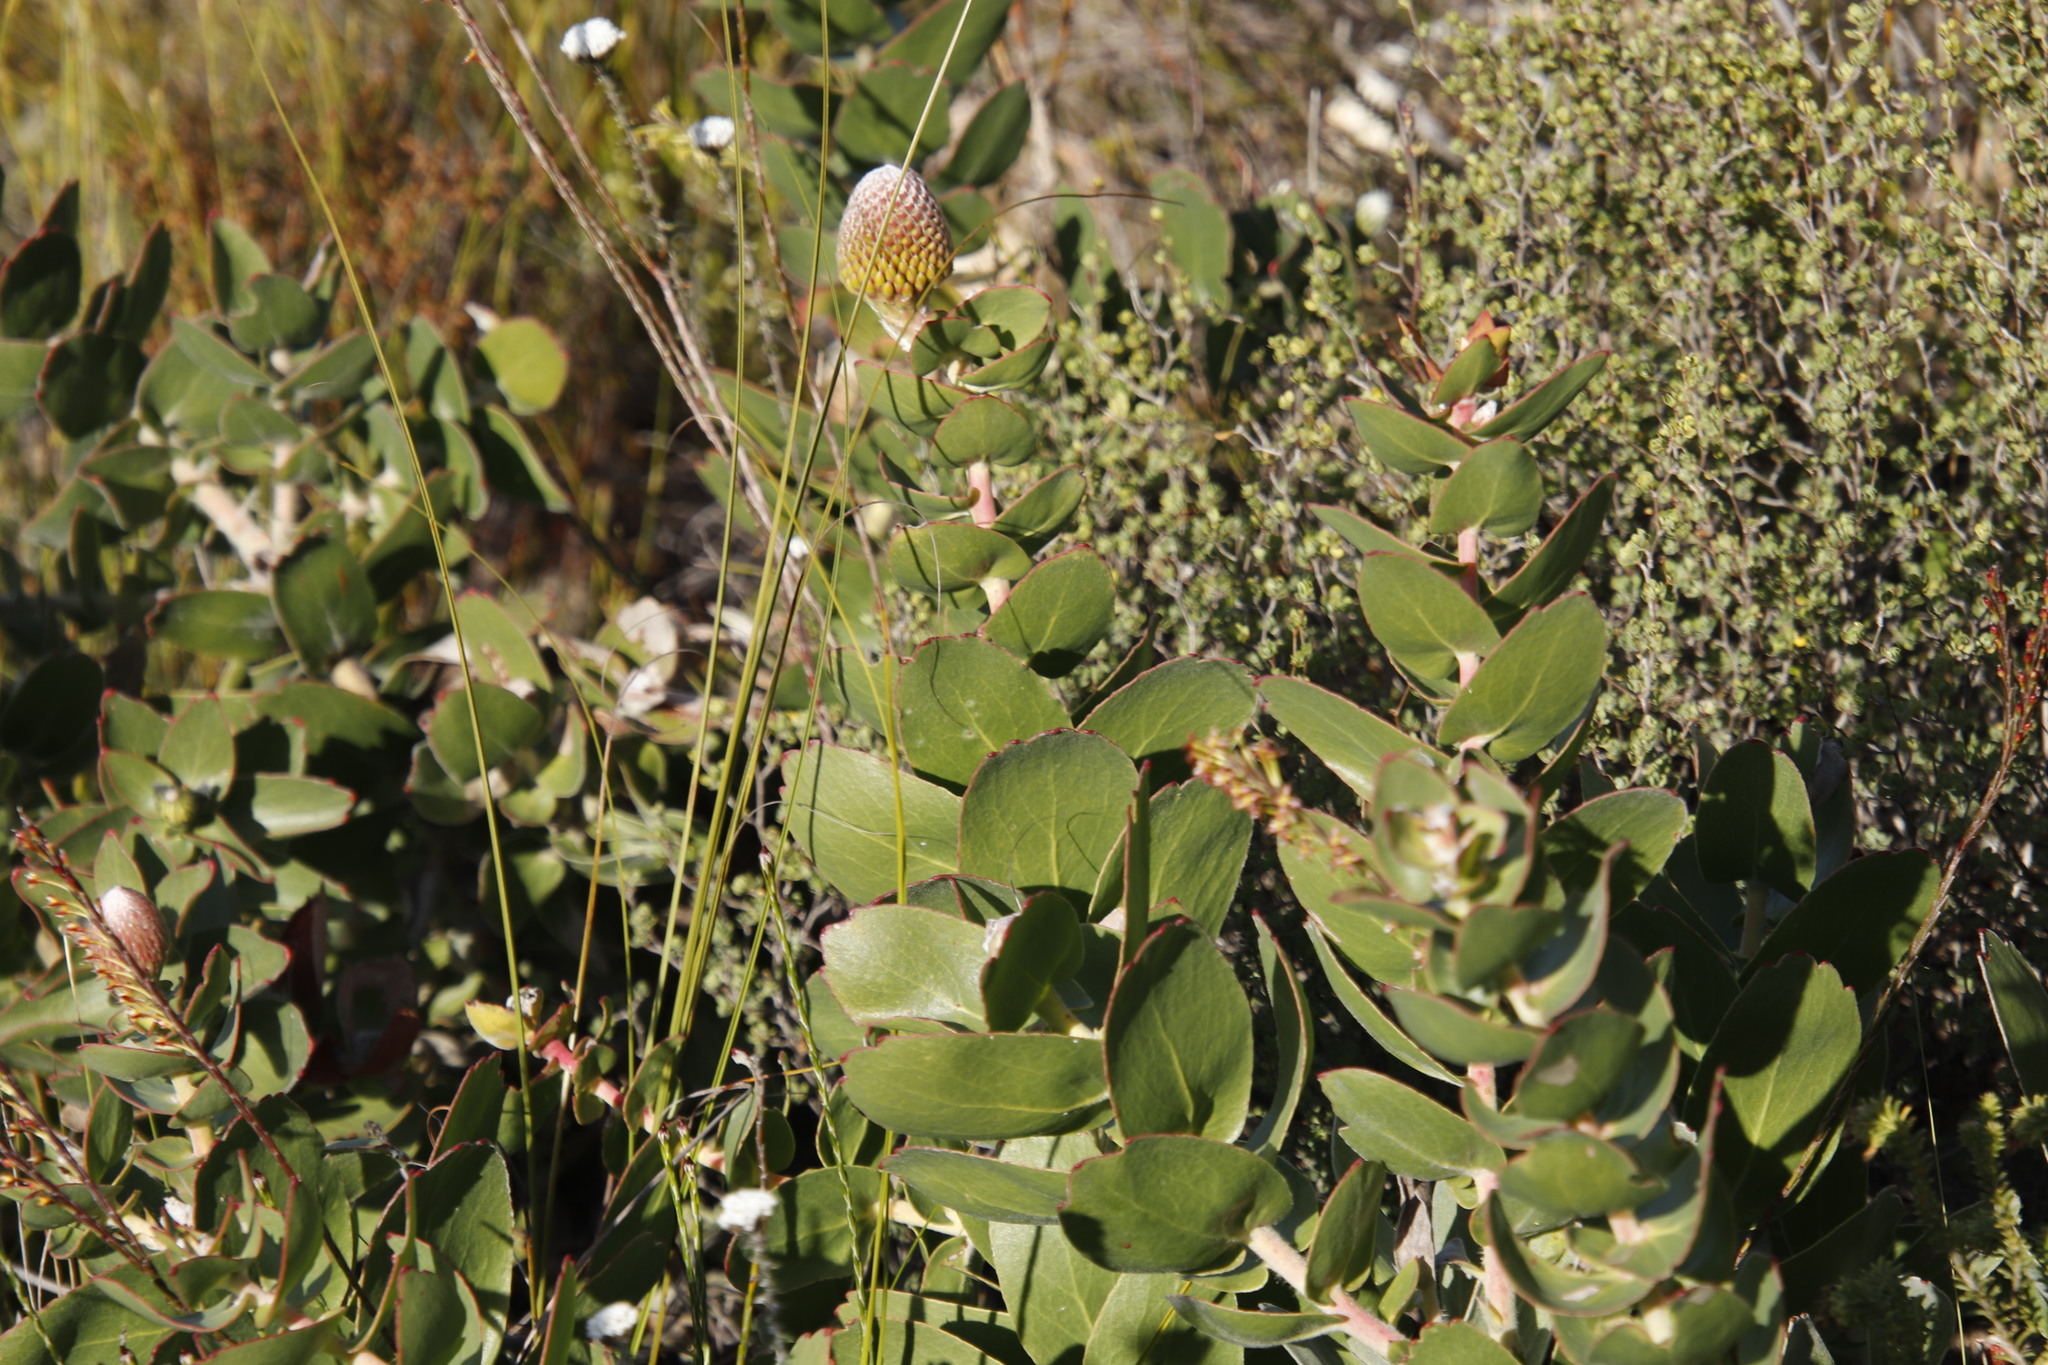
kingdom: Plantae
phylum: Tracheophyta
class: Magnoliopsida
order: Proteales
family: Proteaceae
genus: Leucospermum
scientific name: Leucospermum cordifolium
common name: Red pincushion-protea
